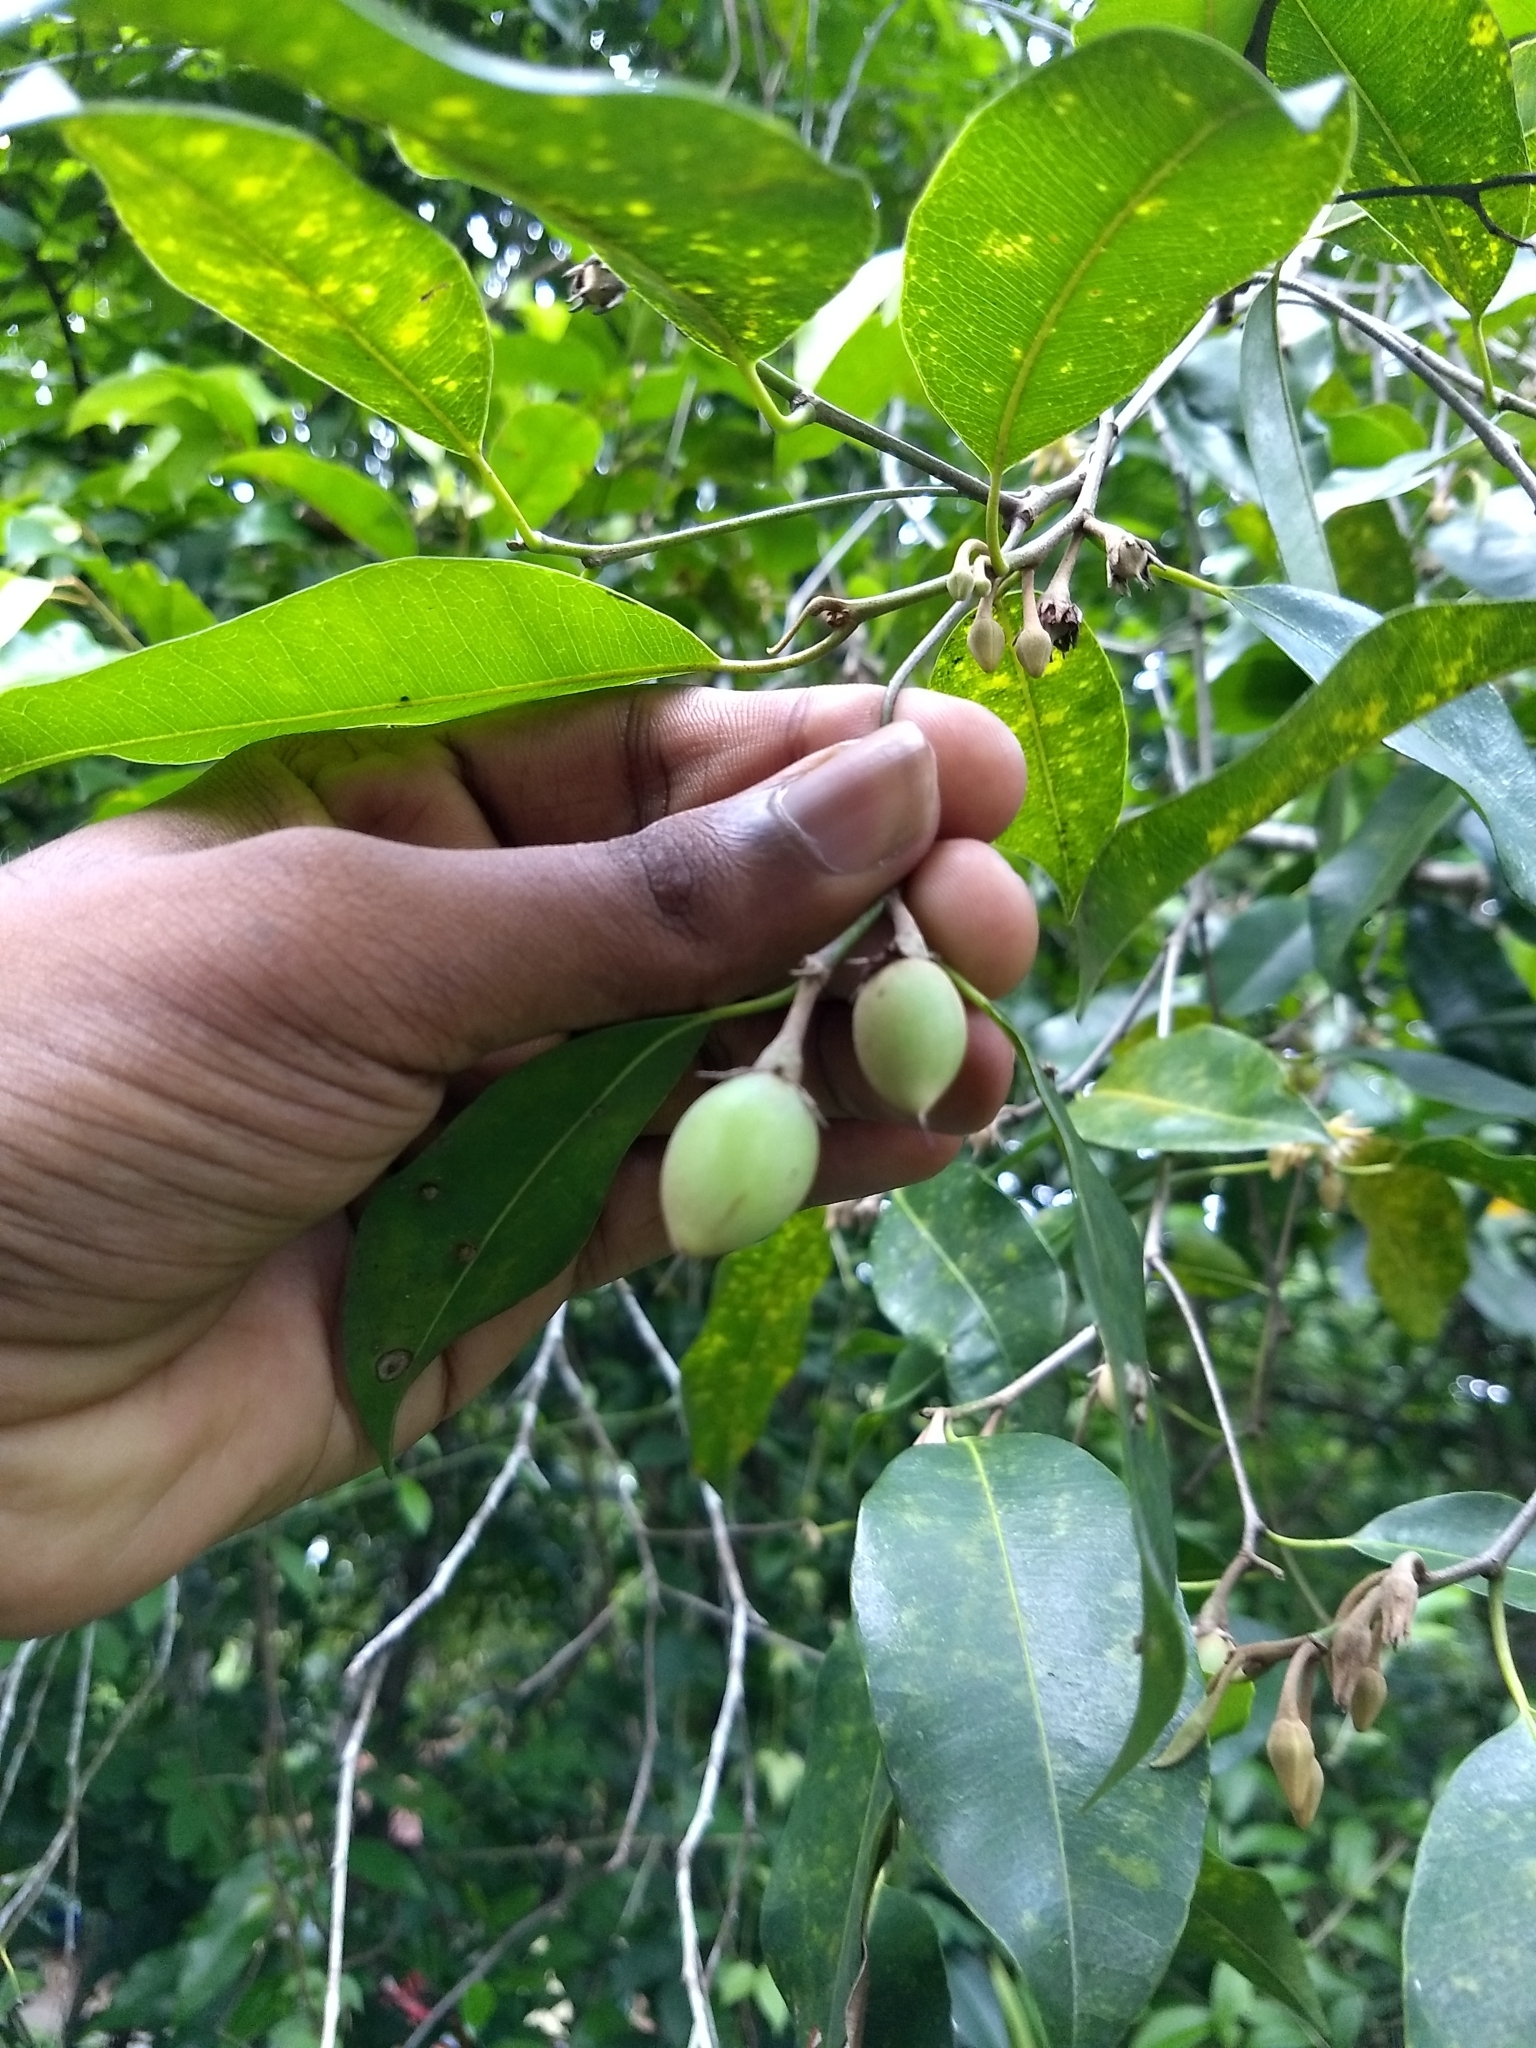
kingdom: Plantae
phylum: Tracheophyta
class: Magnoliopsida
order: Ericales
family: Sapotaceae
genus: Mimusops
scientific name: Mimusops elengi
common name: Spanish cherry
